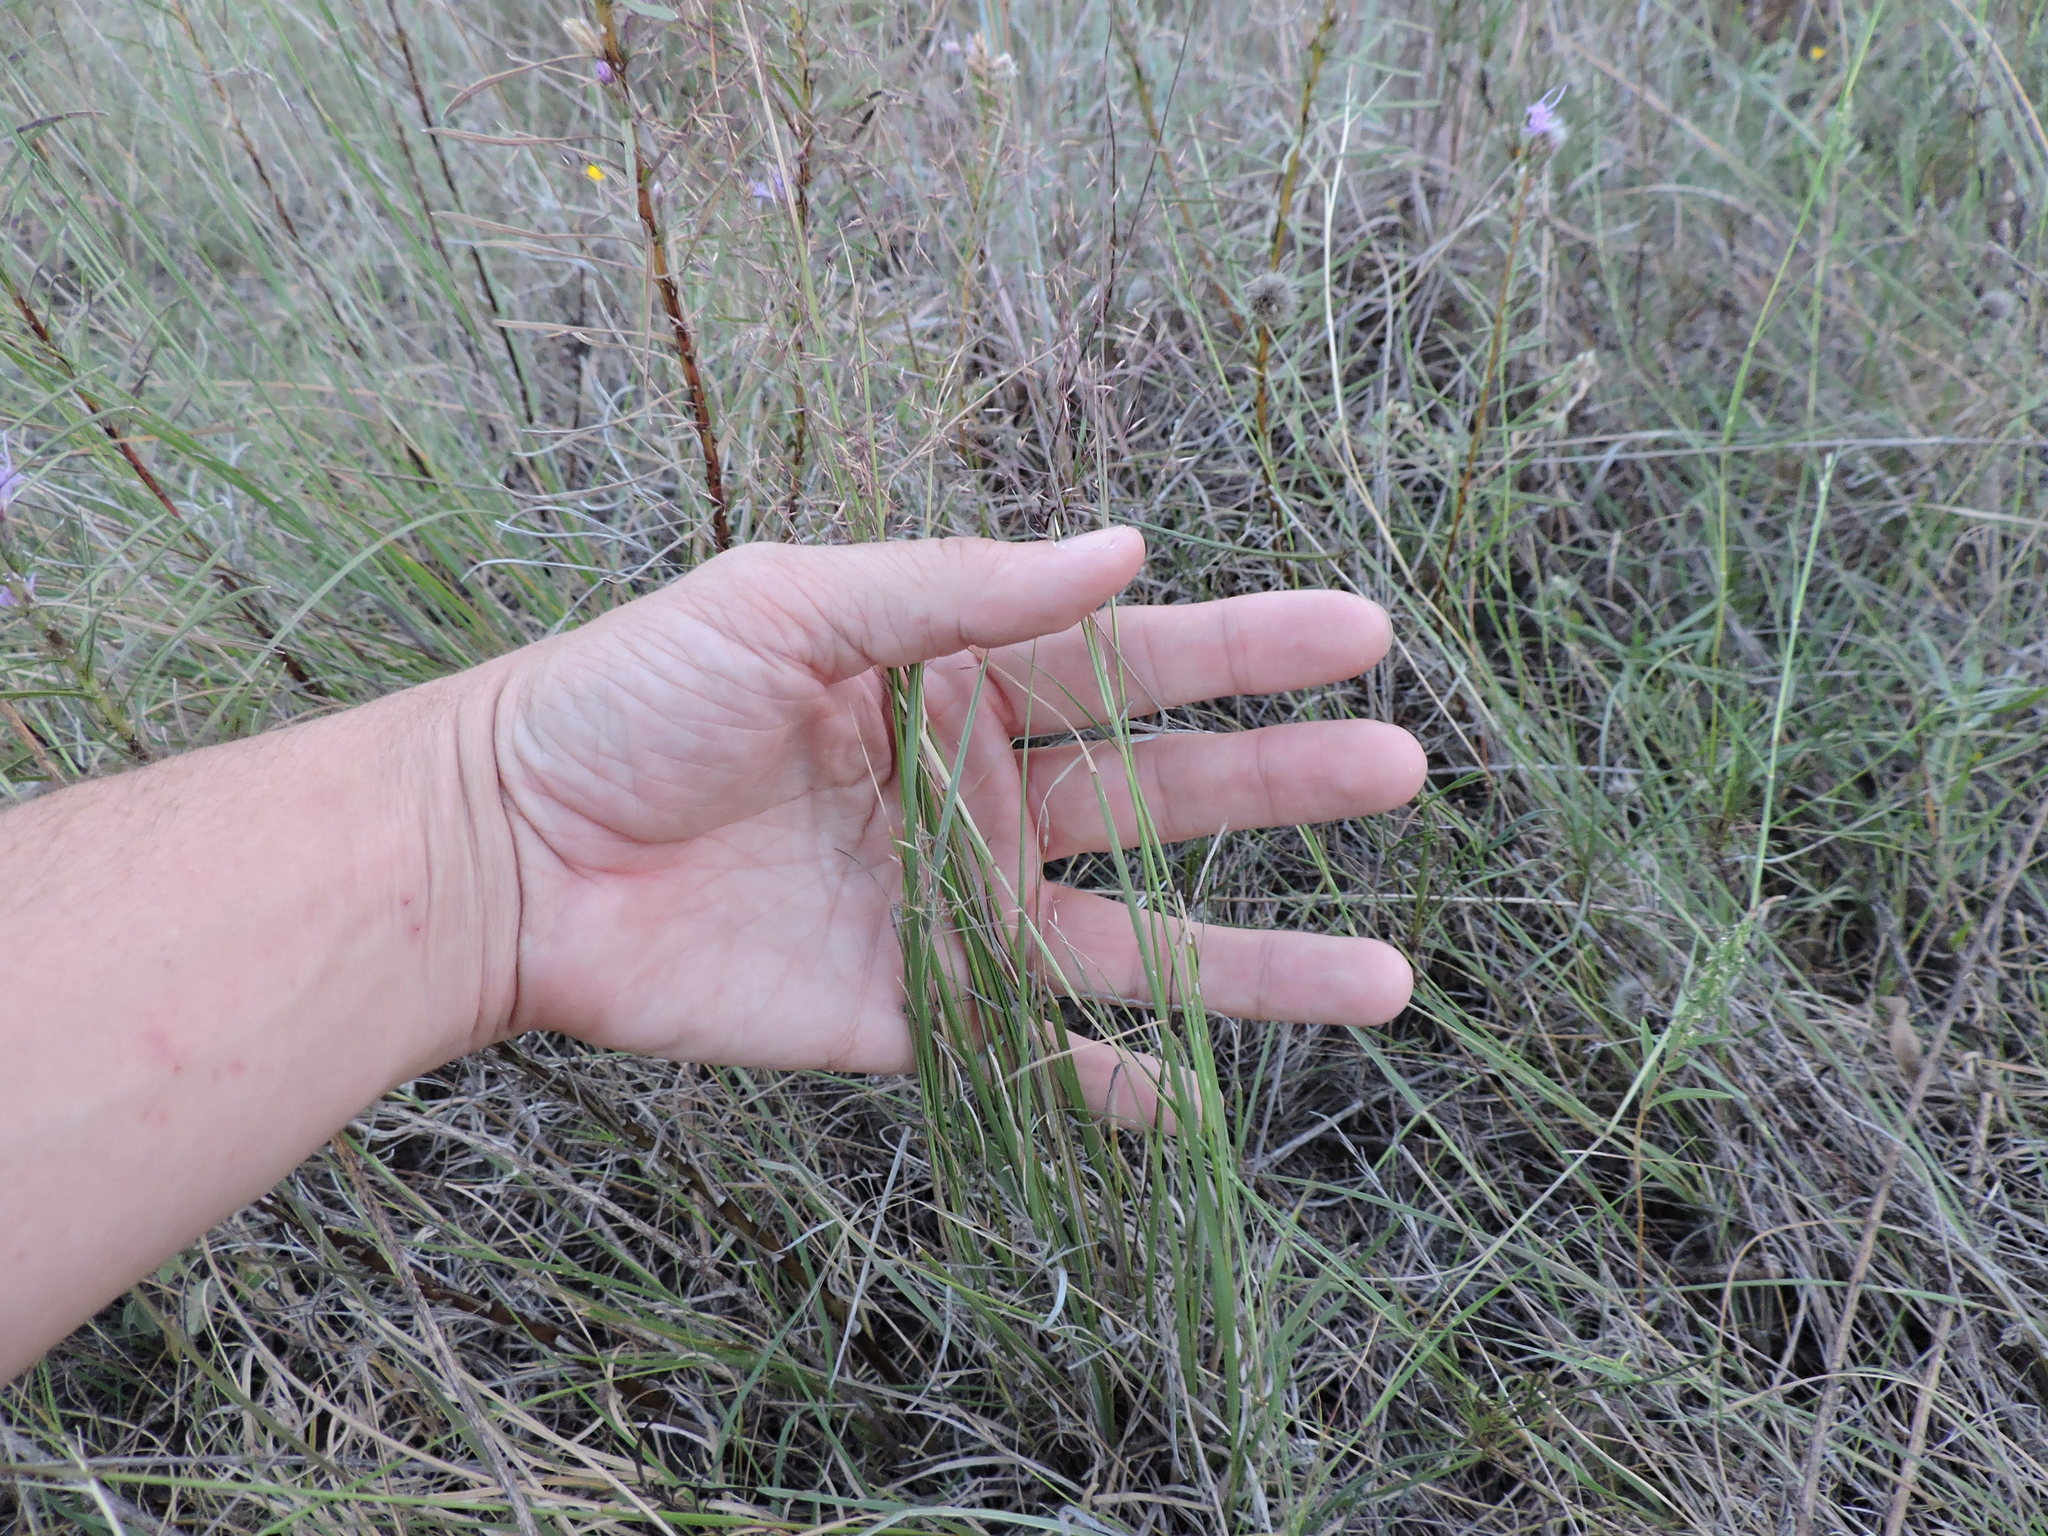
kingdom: Plantae
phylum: Tracheophyta
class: Liliopsida
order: Poales
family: Poaceae
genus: Muhlenbergia
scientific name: Muhlenbergia reverchonii
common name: Seep muhly
